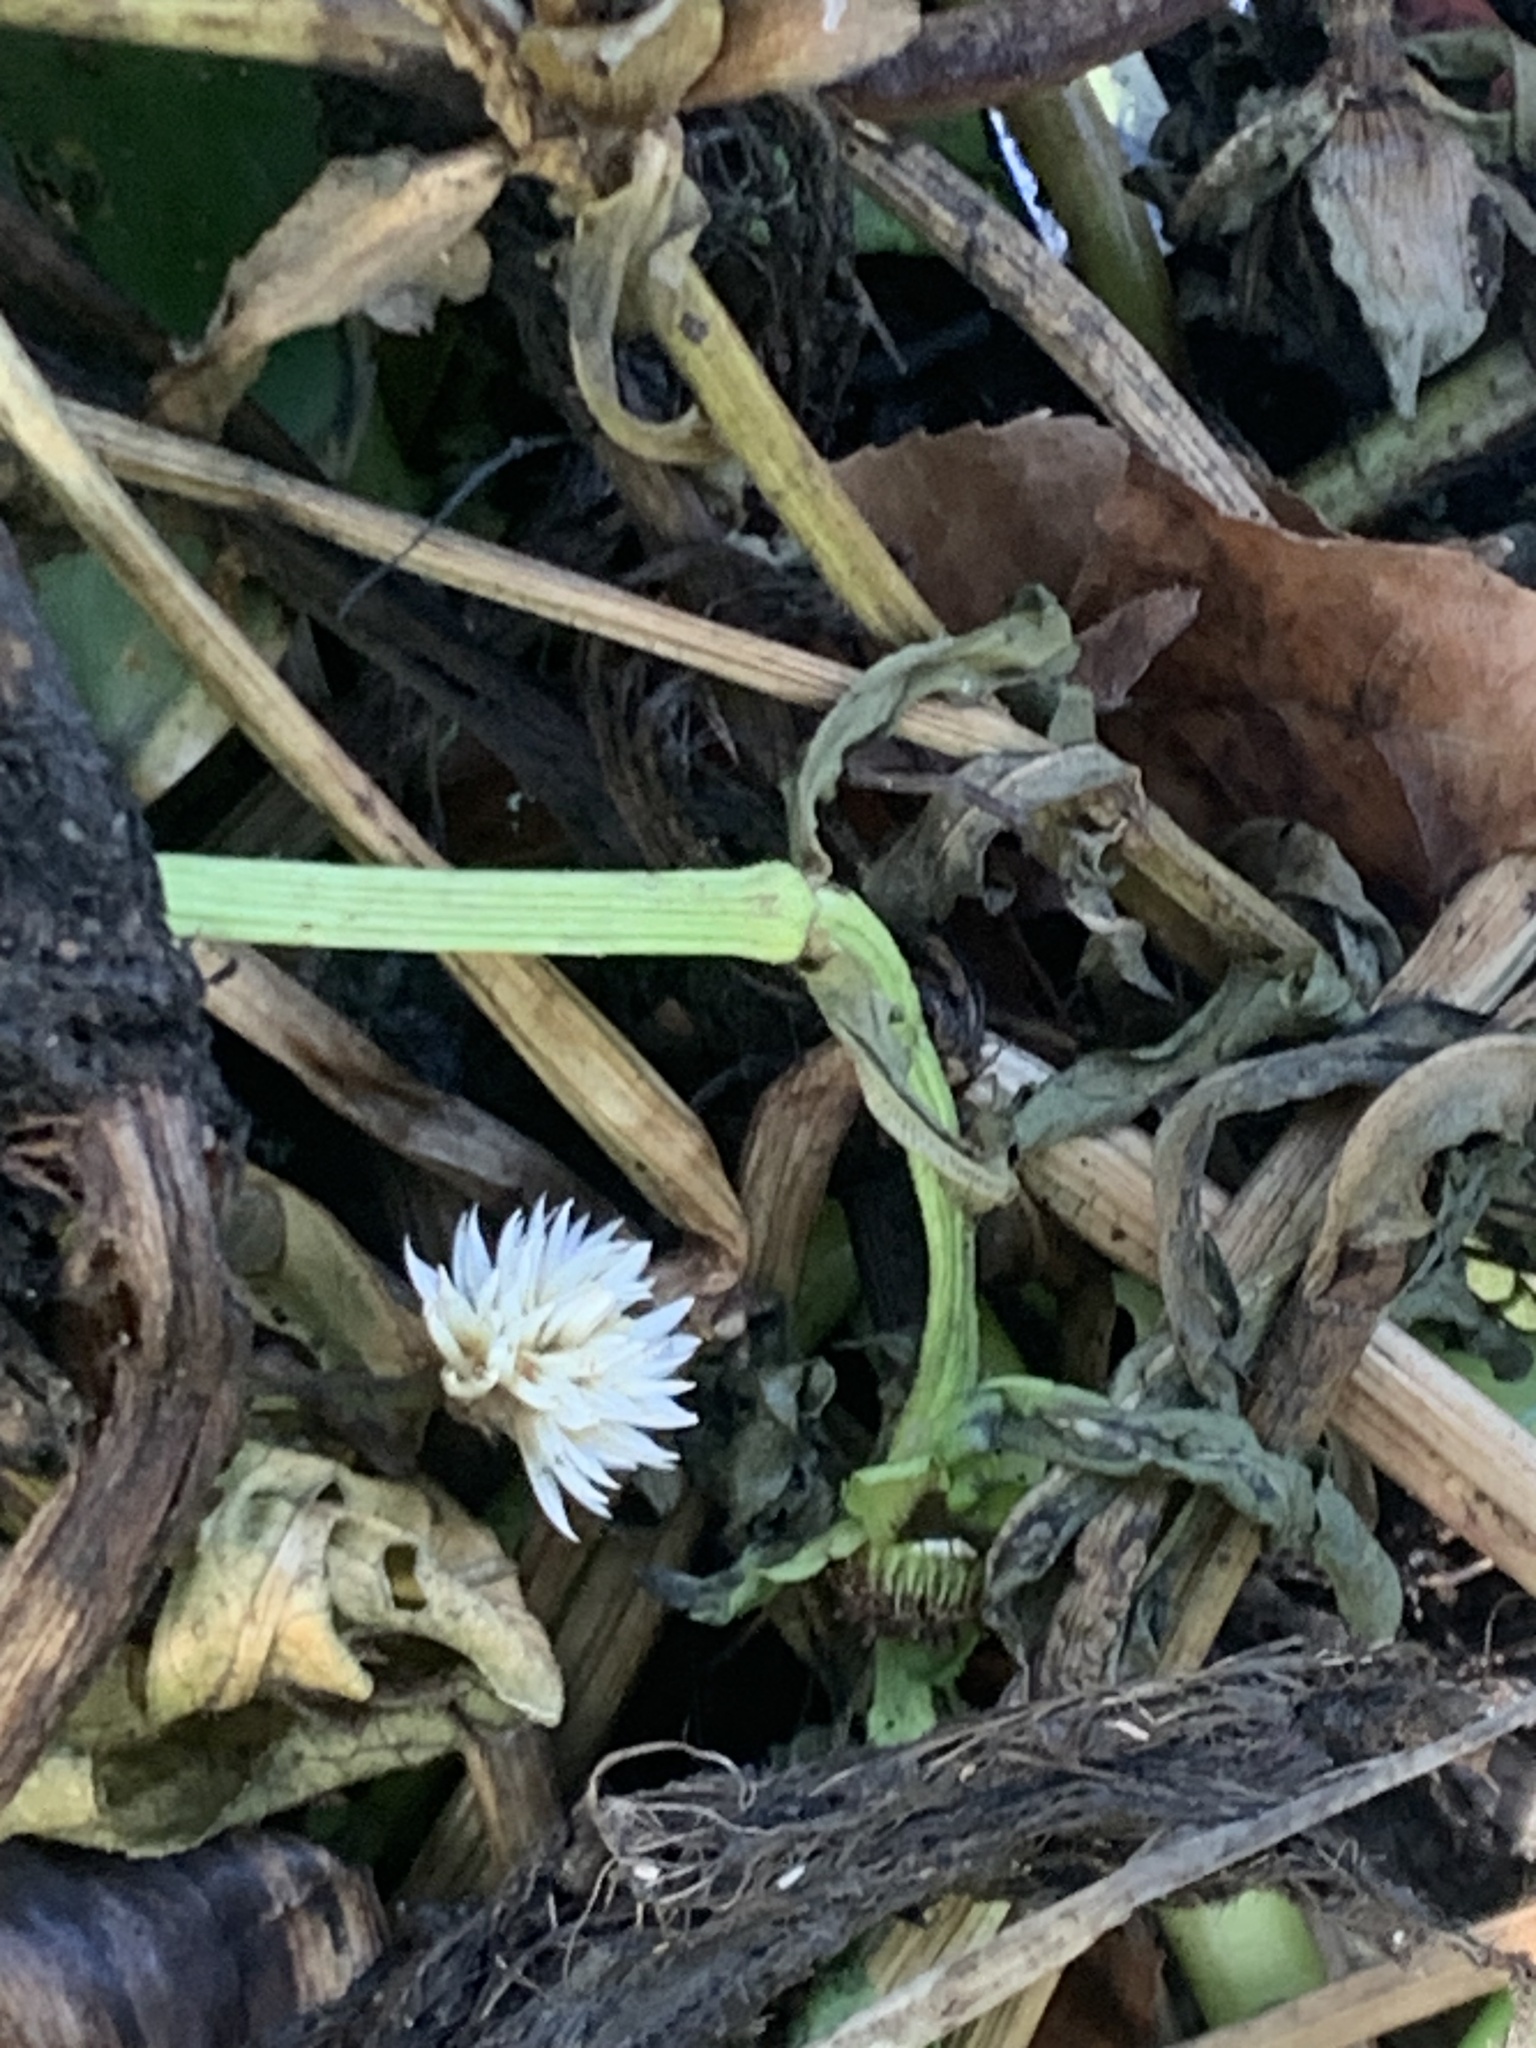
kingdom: Plantae
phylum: Tracheophyta
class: Magnoliopsida
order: Asterales
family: Asteraceae
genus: Enydra
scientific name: Enydra fluctuans
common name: Buffalo spinach
